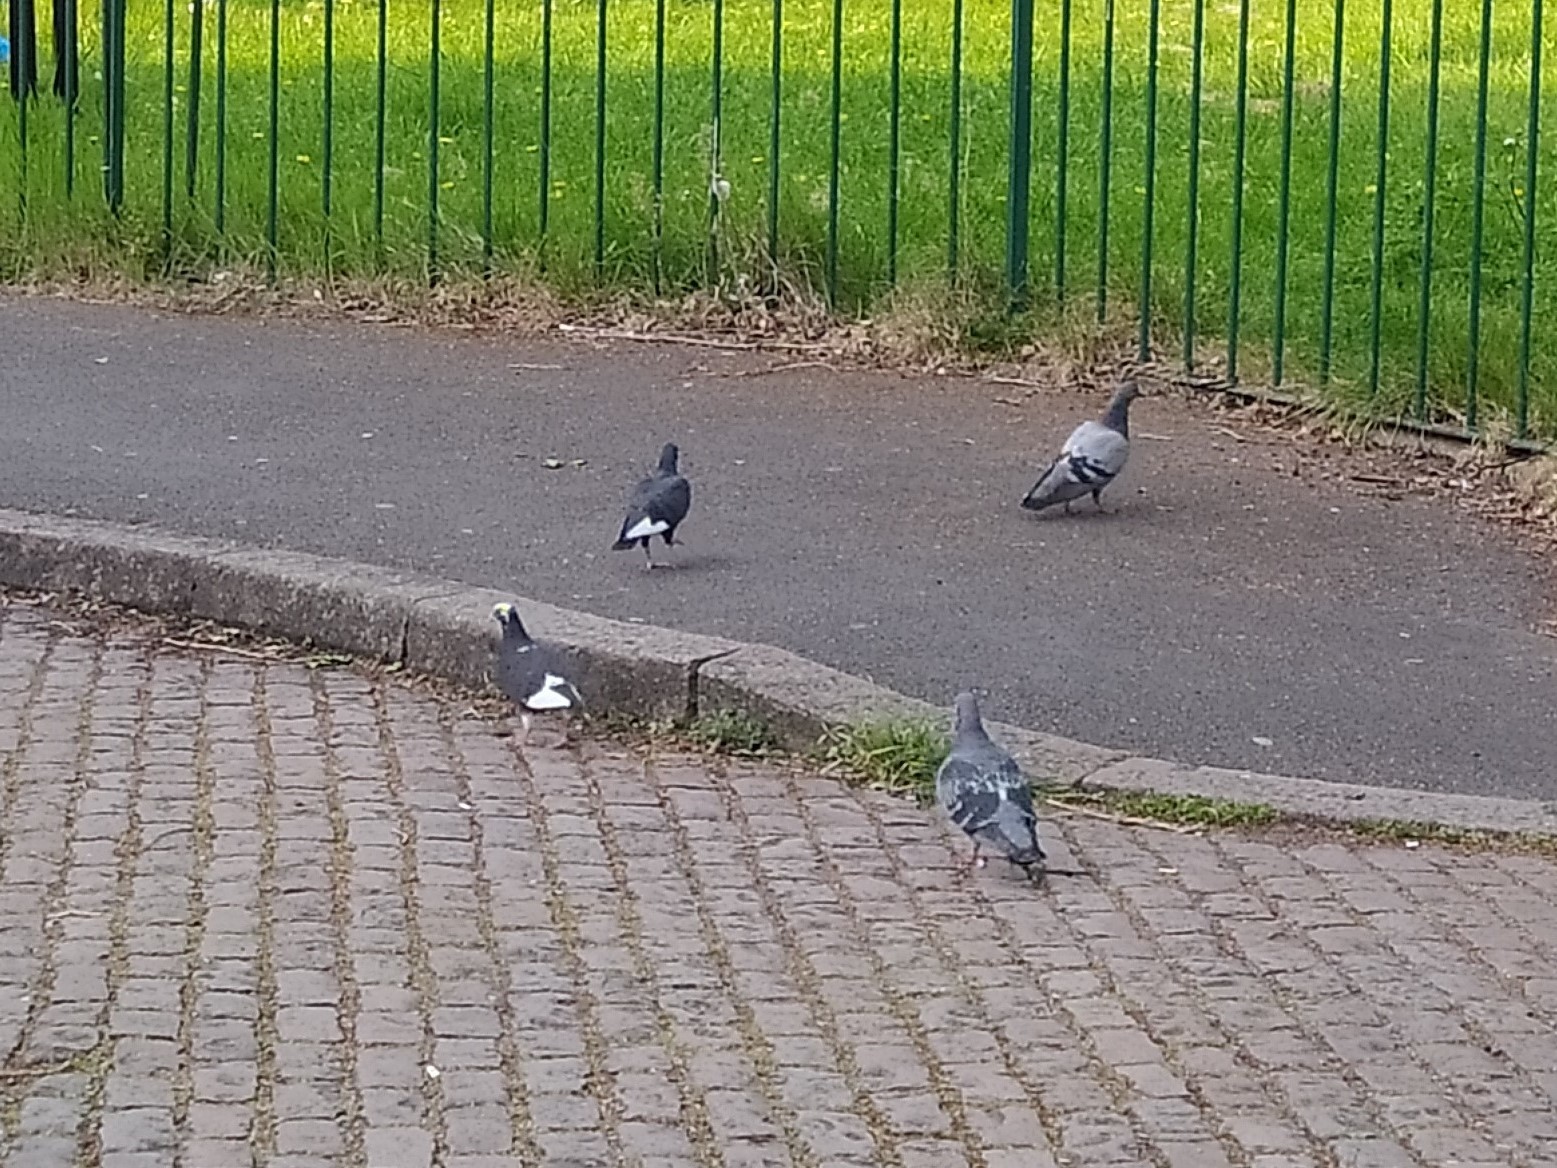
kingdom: Animalia
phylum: Chordata
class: Aves
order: Columbiformes
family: Columbidae
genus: Columba
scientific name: Columba livia
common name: Rock pigeon
